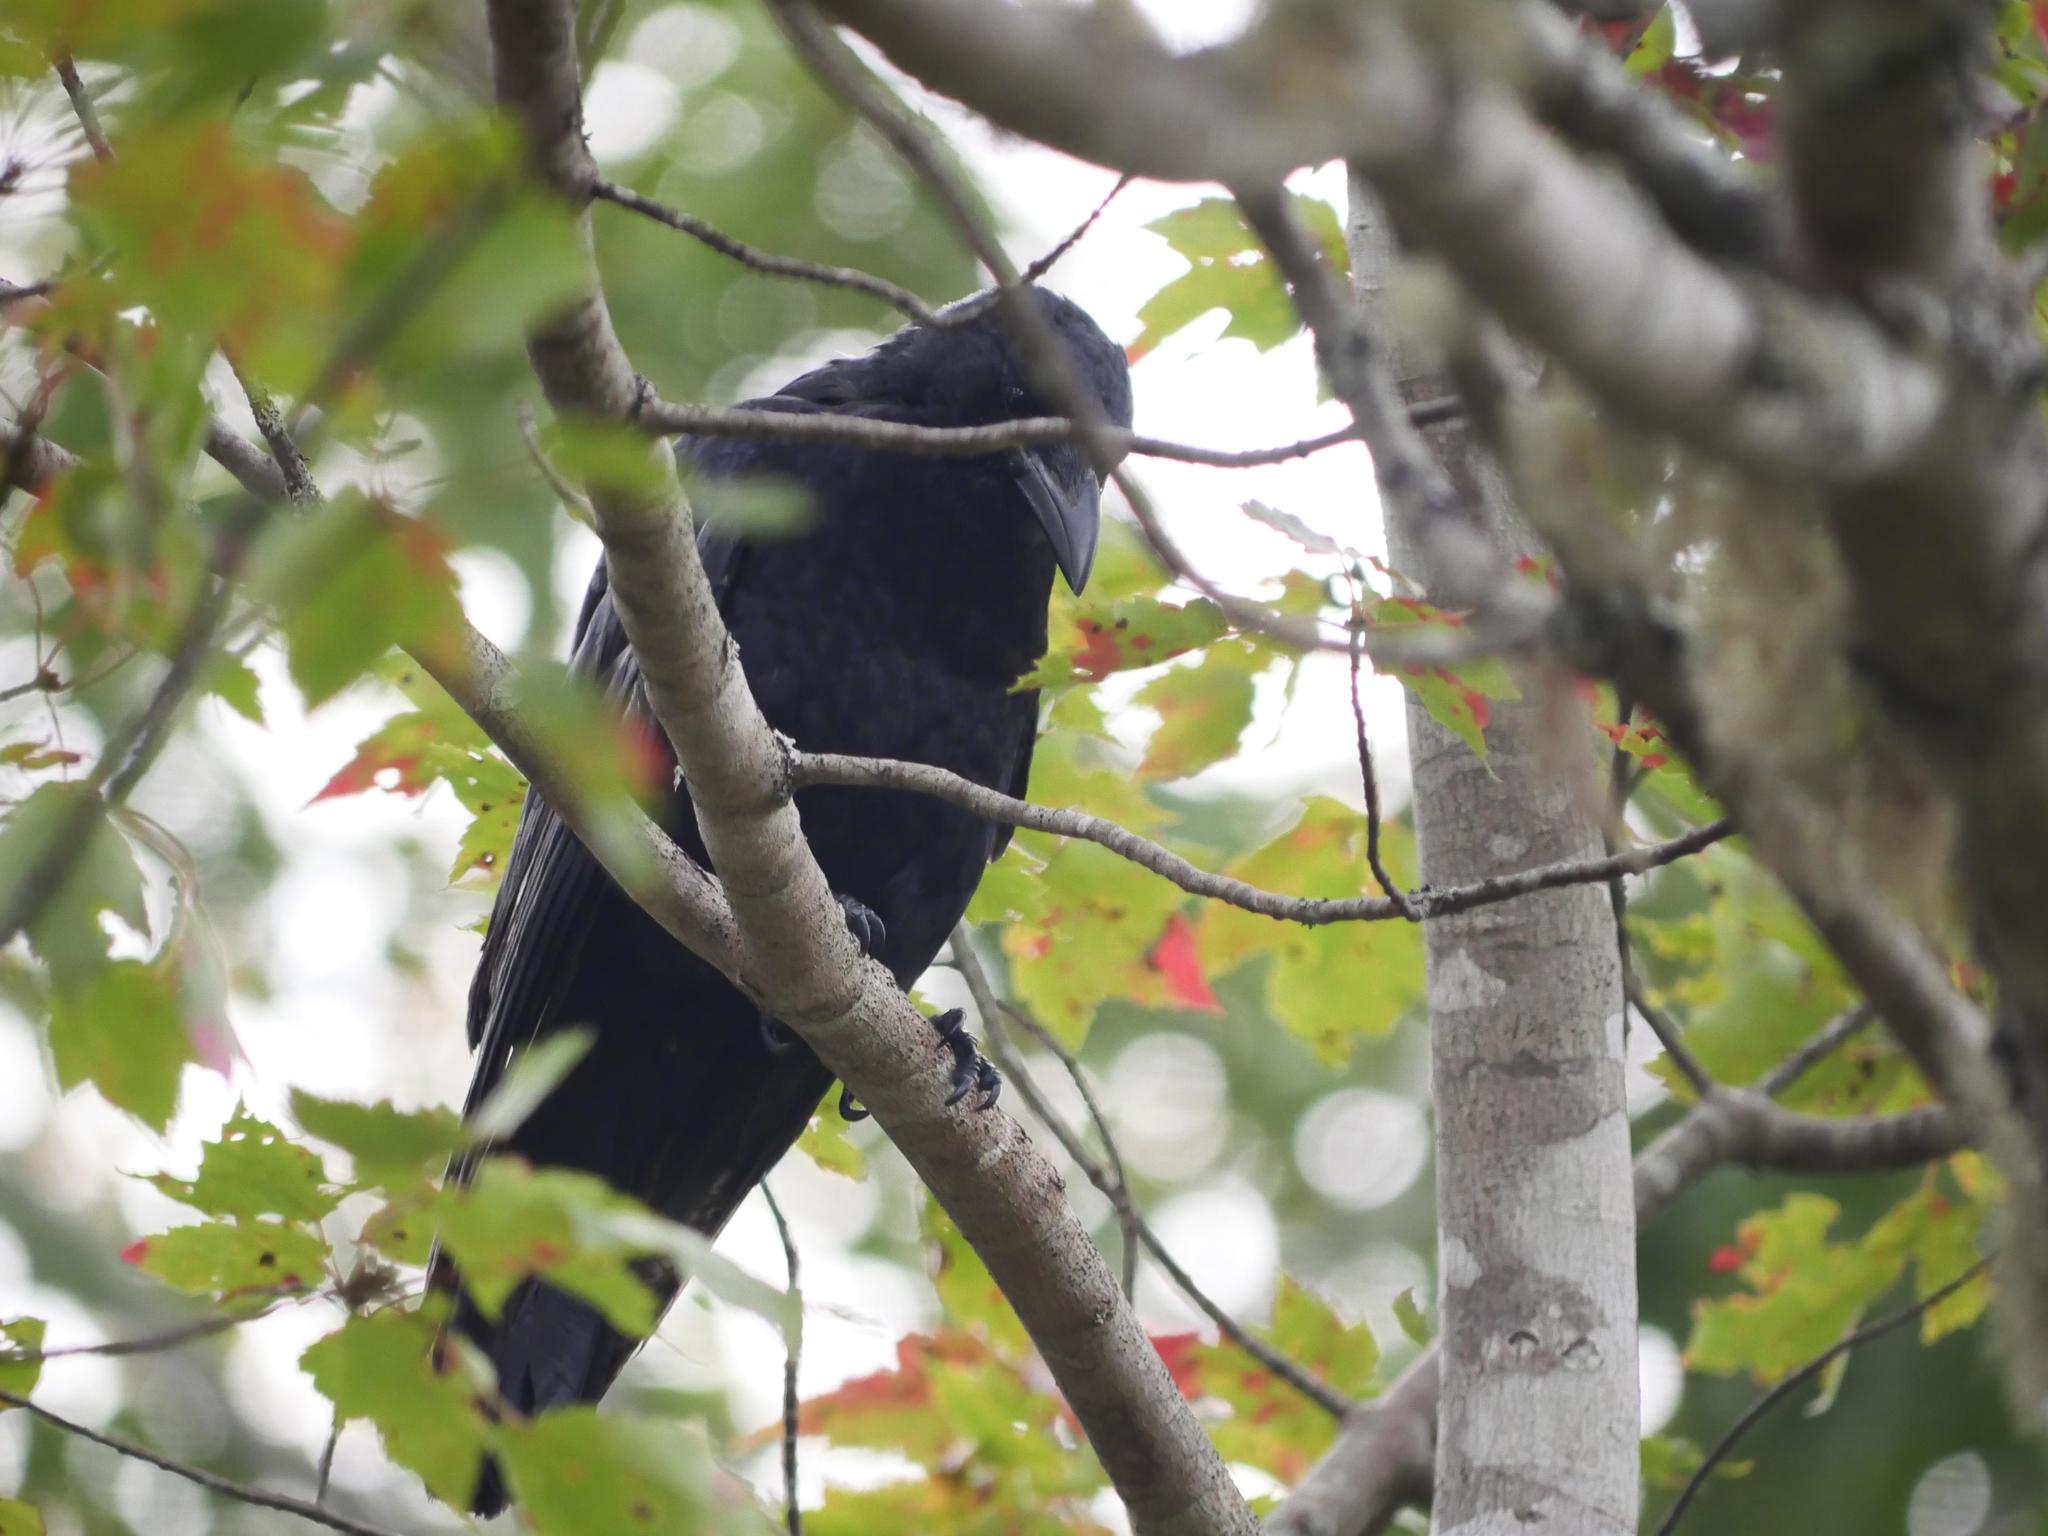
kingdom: Animalia
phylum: Chordata
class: Aves
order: Passeriformes
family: Corvidae
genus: Corvus
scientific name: Corvus brachyrhynchos
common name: American crow
